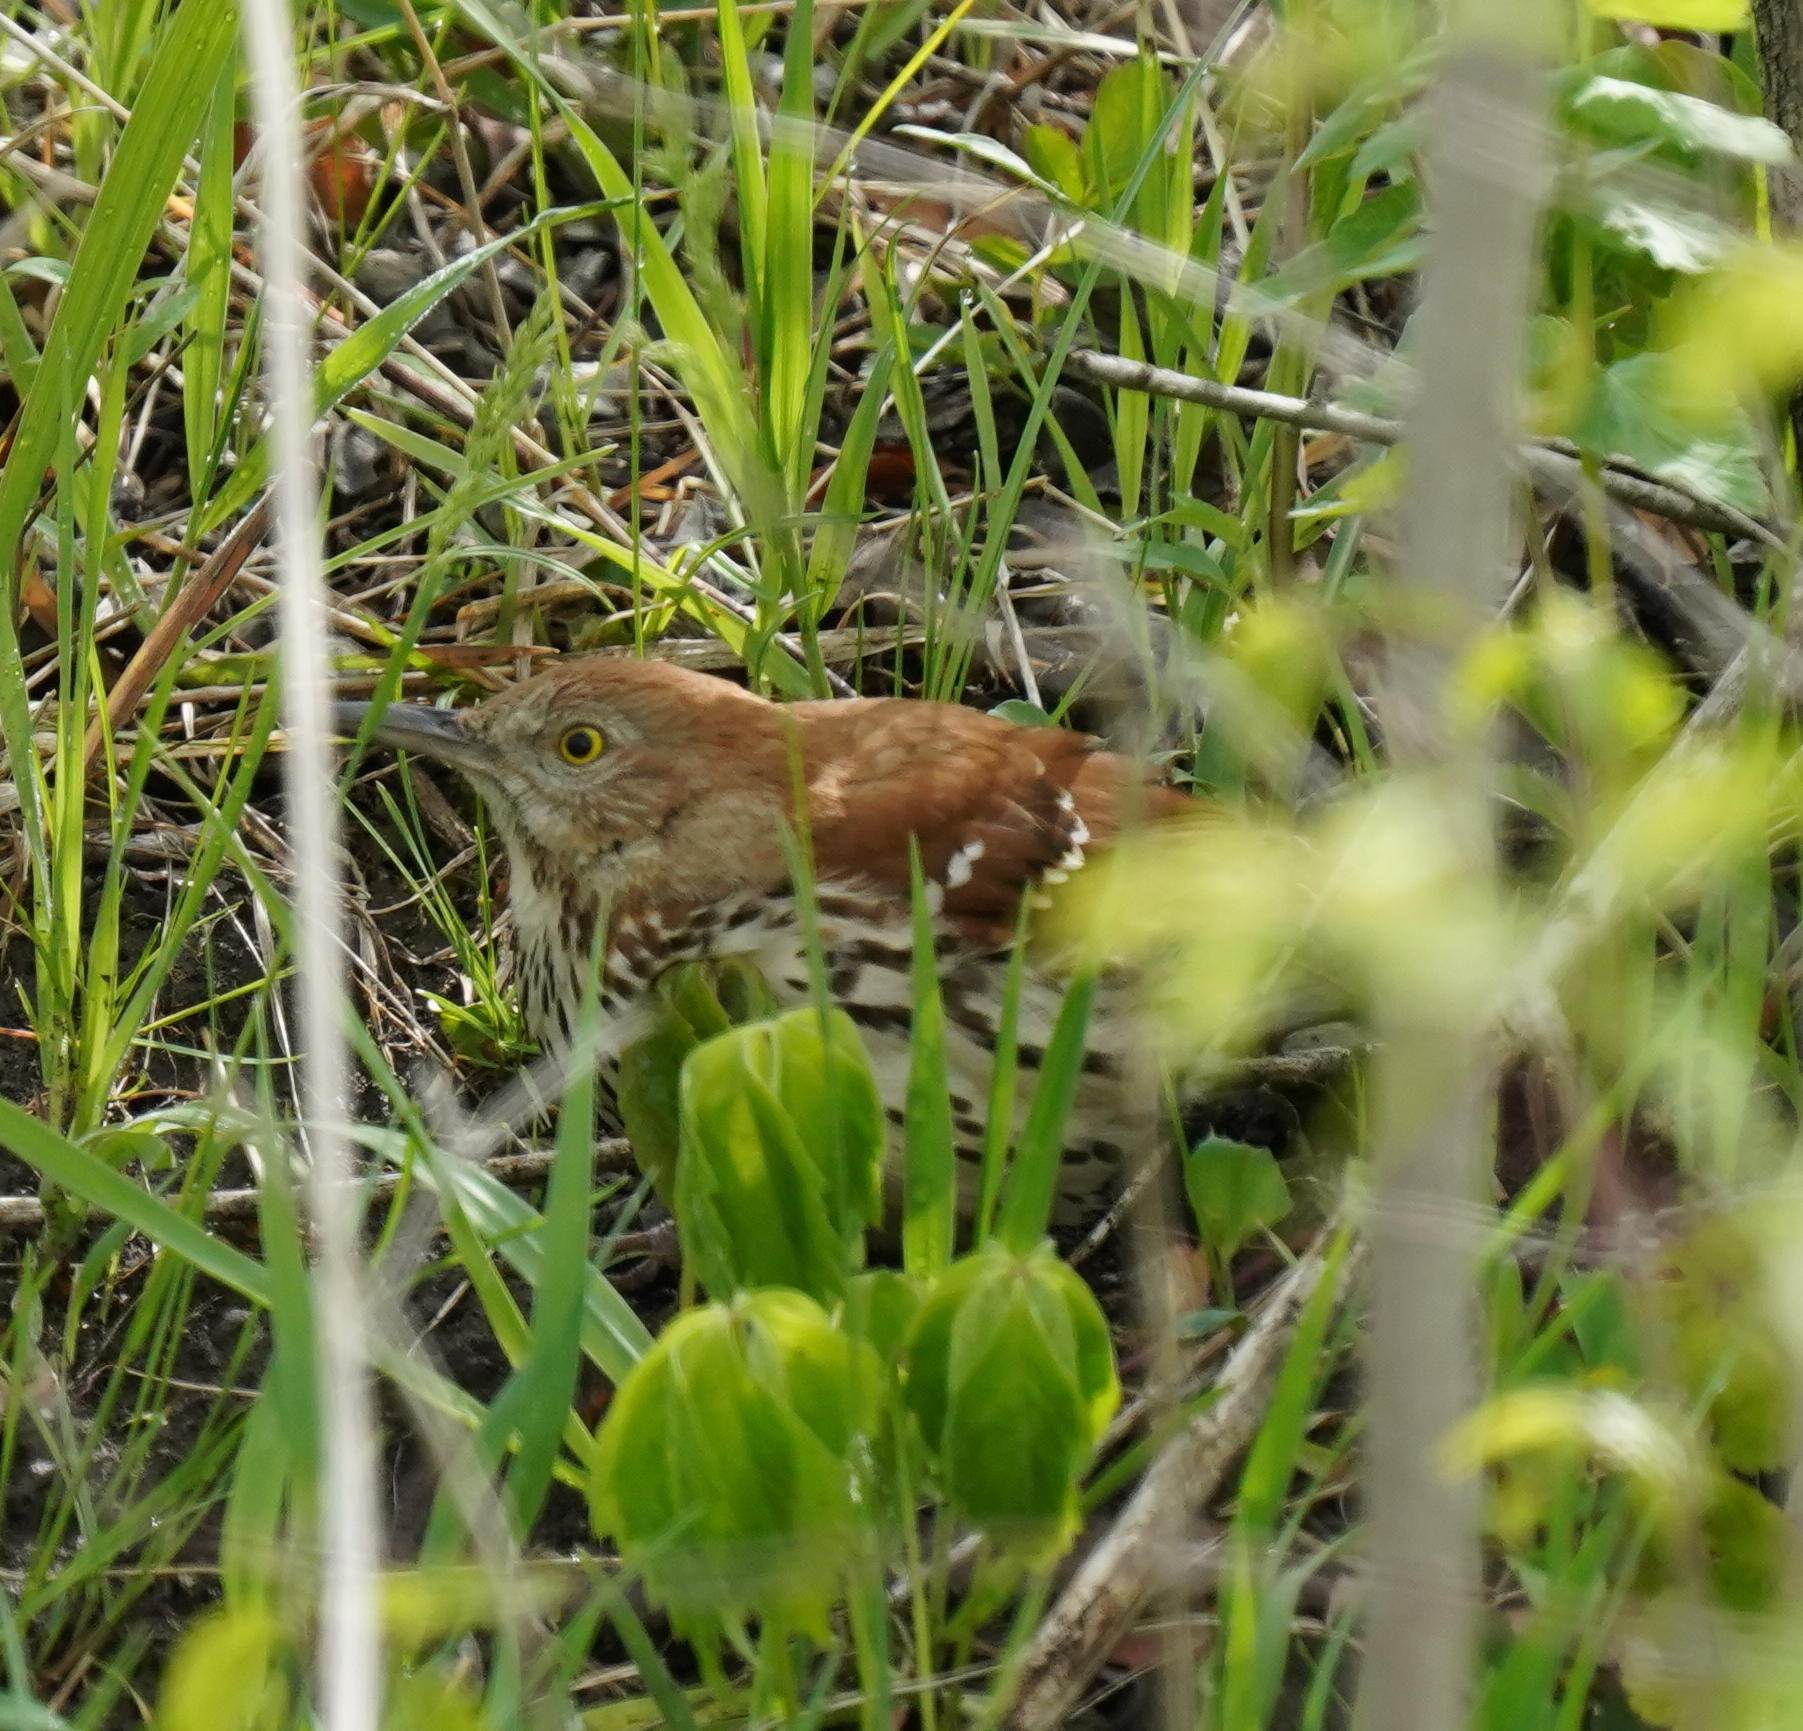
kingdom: Animalia
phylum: Chordata
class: Aves
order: Passeriformes
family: Mimidae
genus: Toxostoma
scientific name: Toxostoma rufum
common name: Brown thrasher
